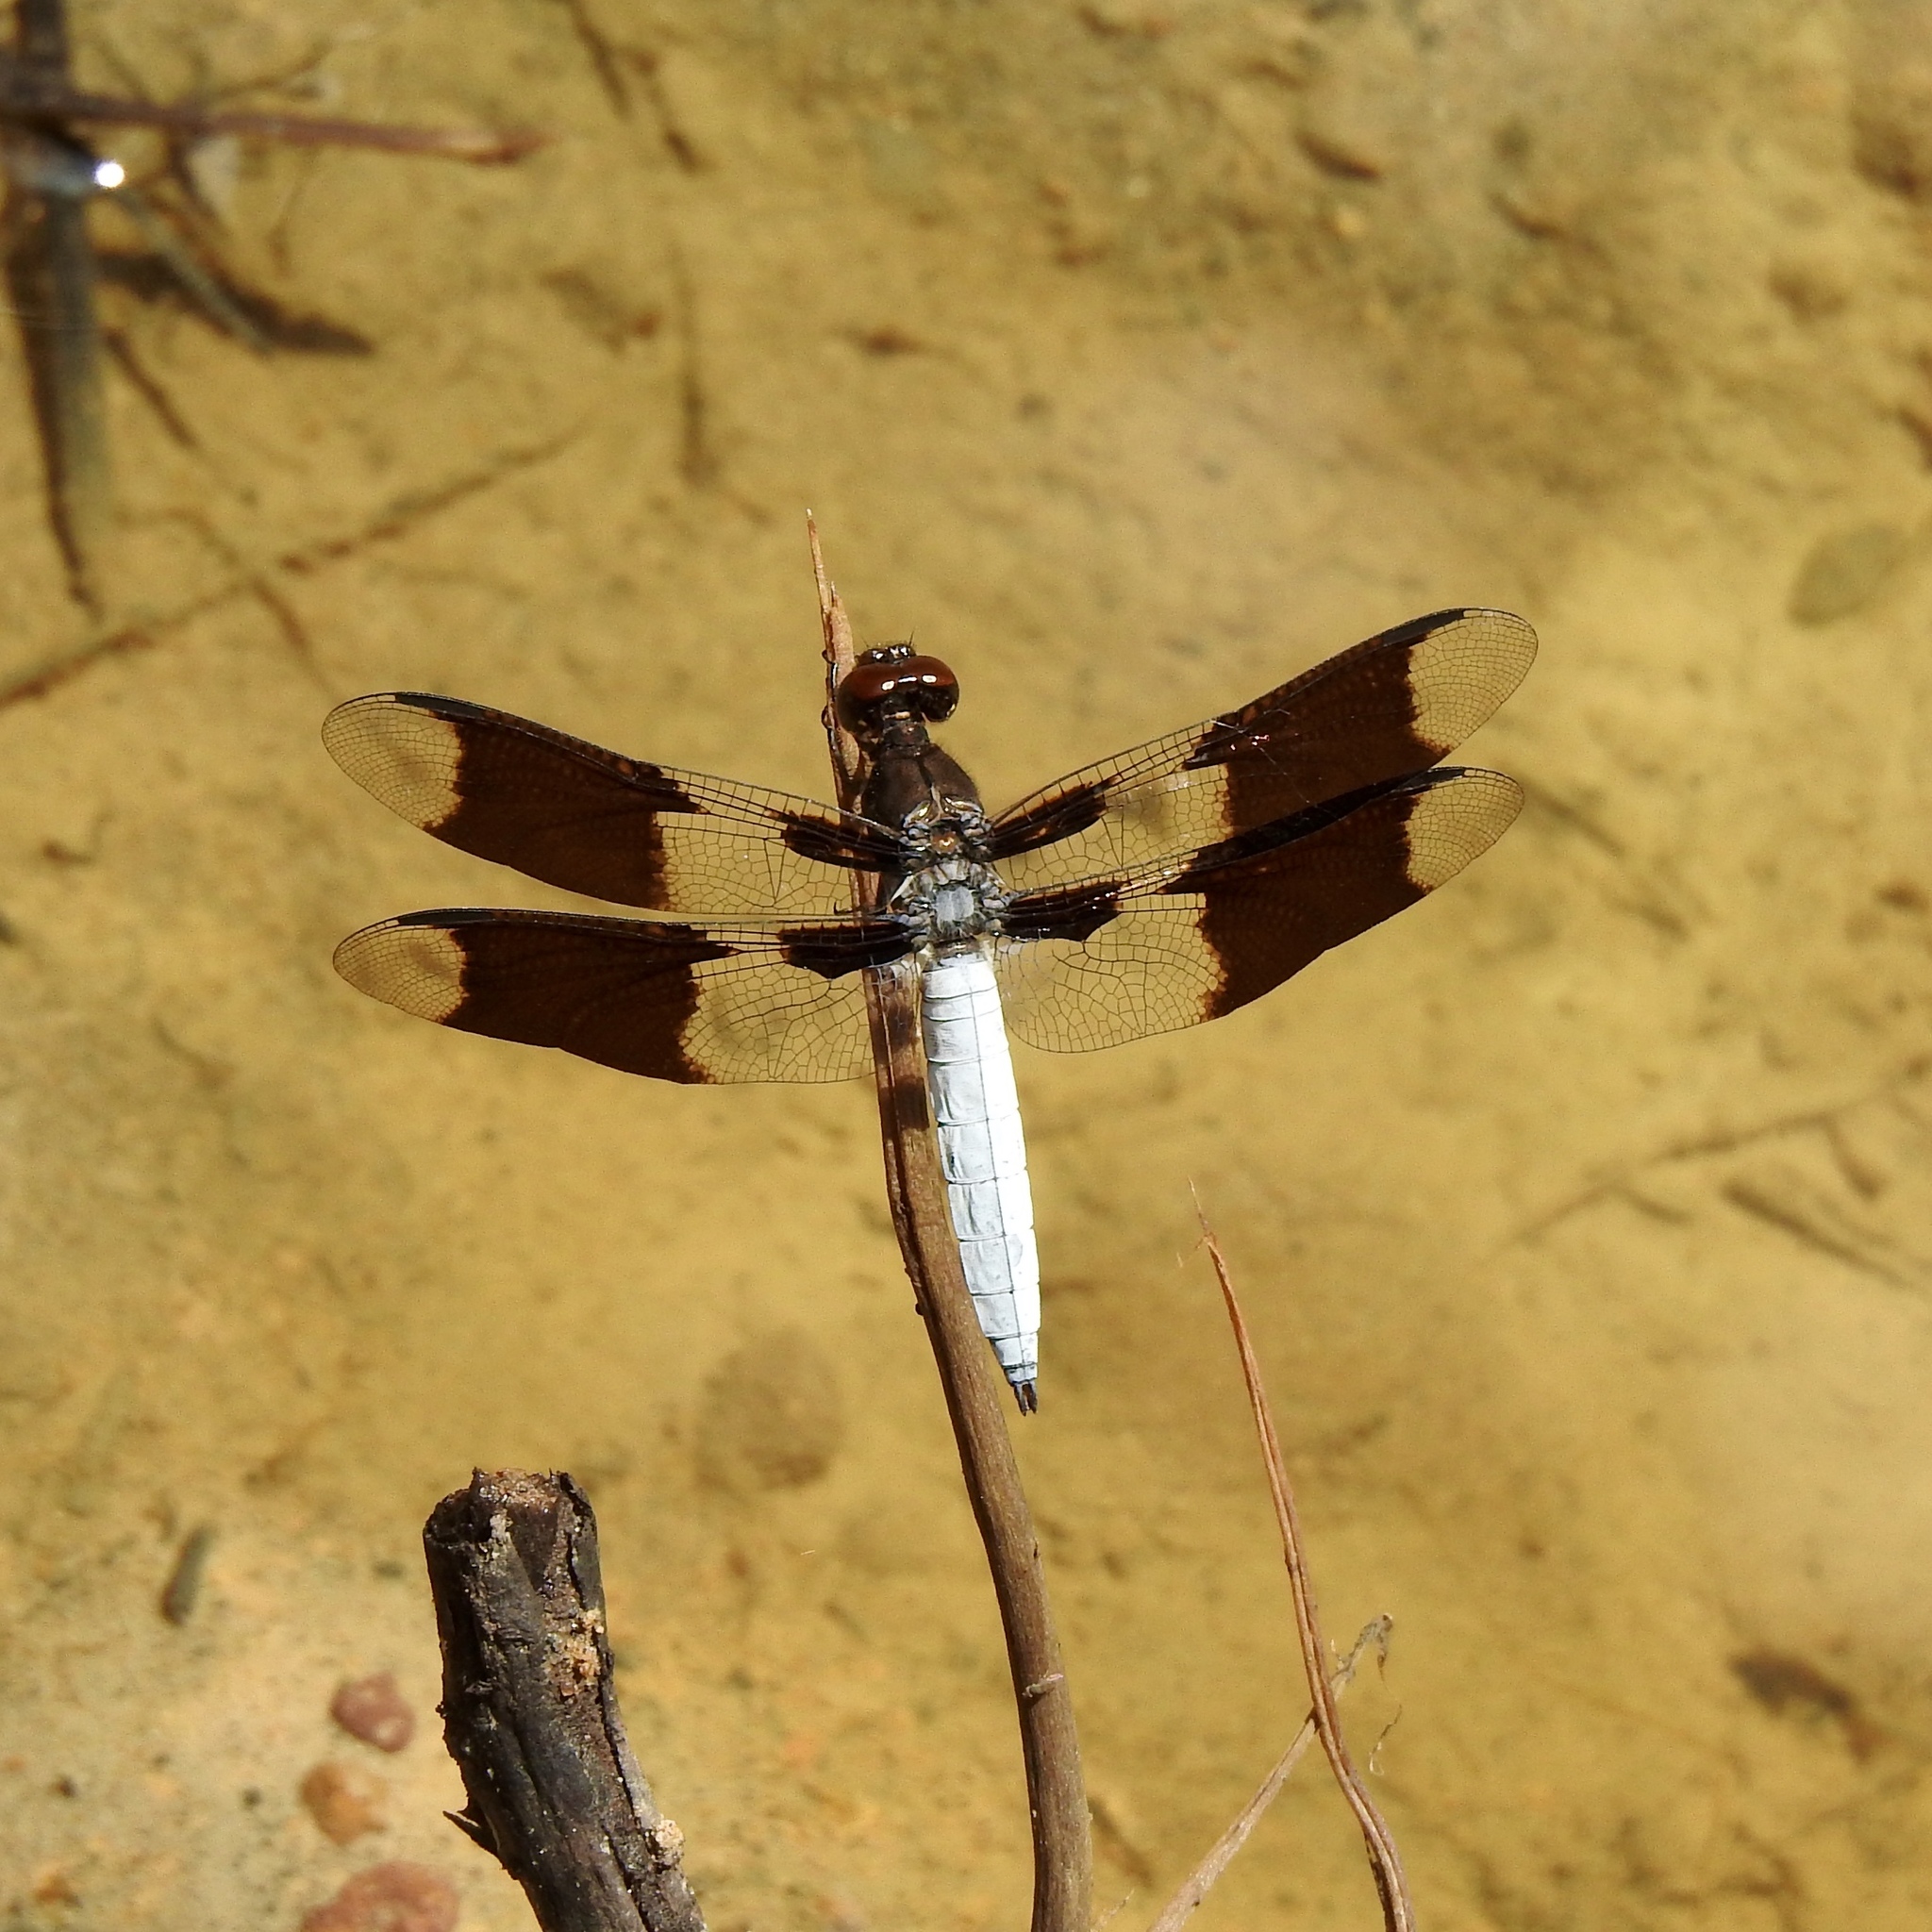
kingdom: Animalia
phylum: Arthropoda
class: Insecta
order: Odonata
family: Libellulidae
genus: Plathemis
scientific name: Plathemis lydia
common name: Common whitetail
